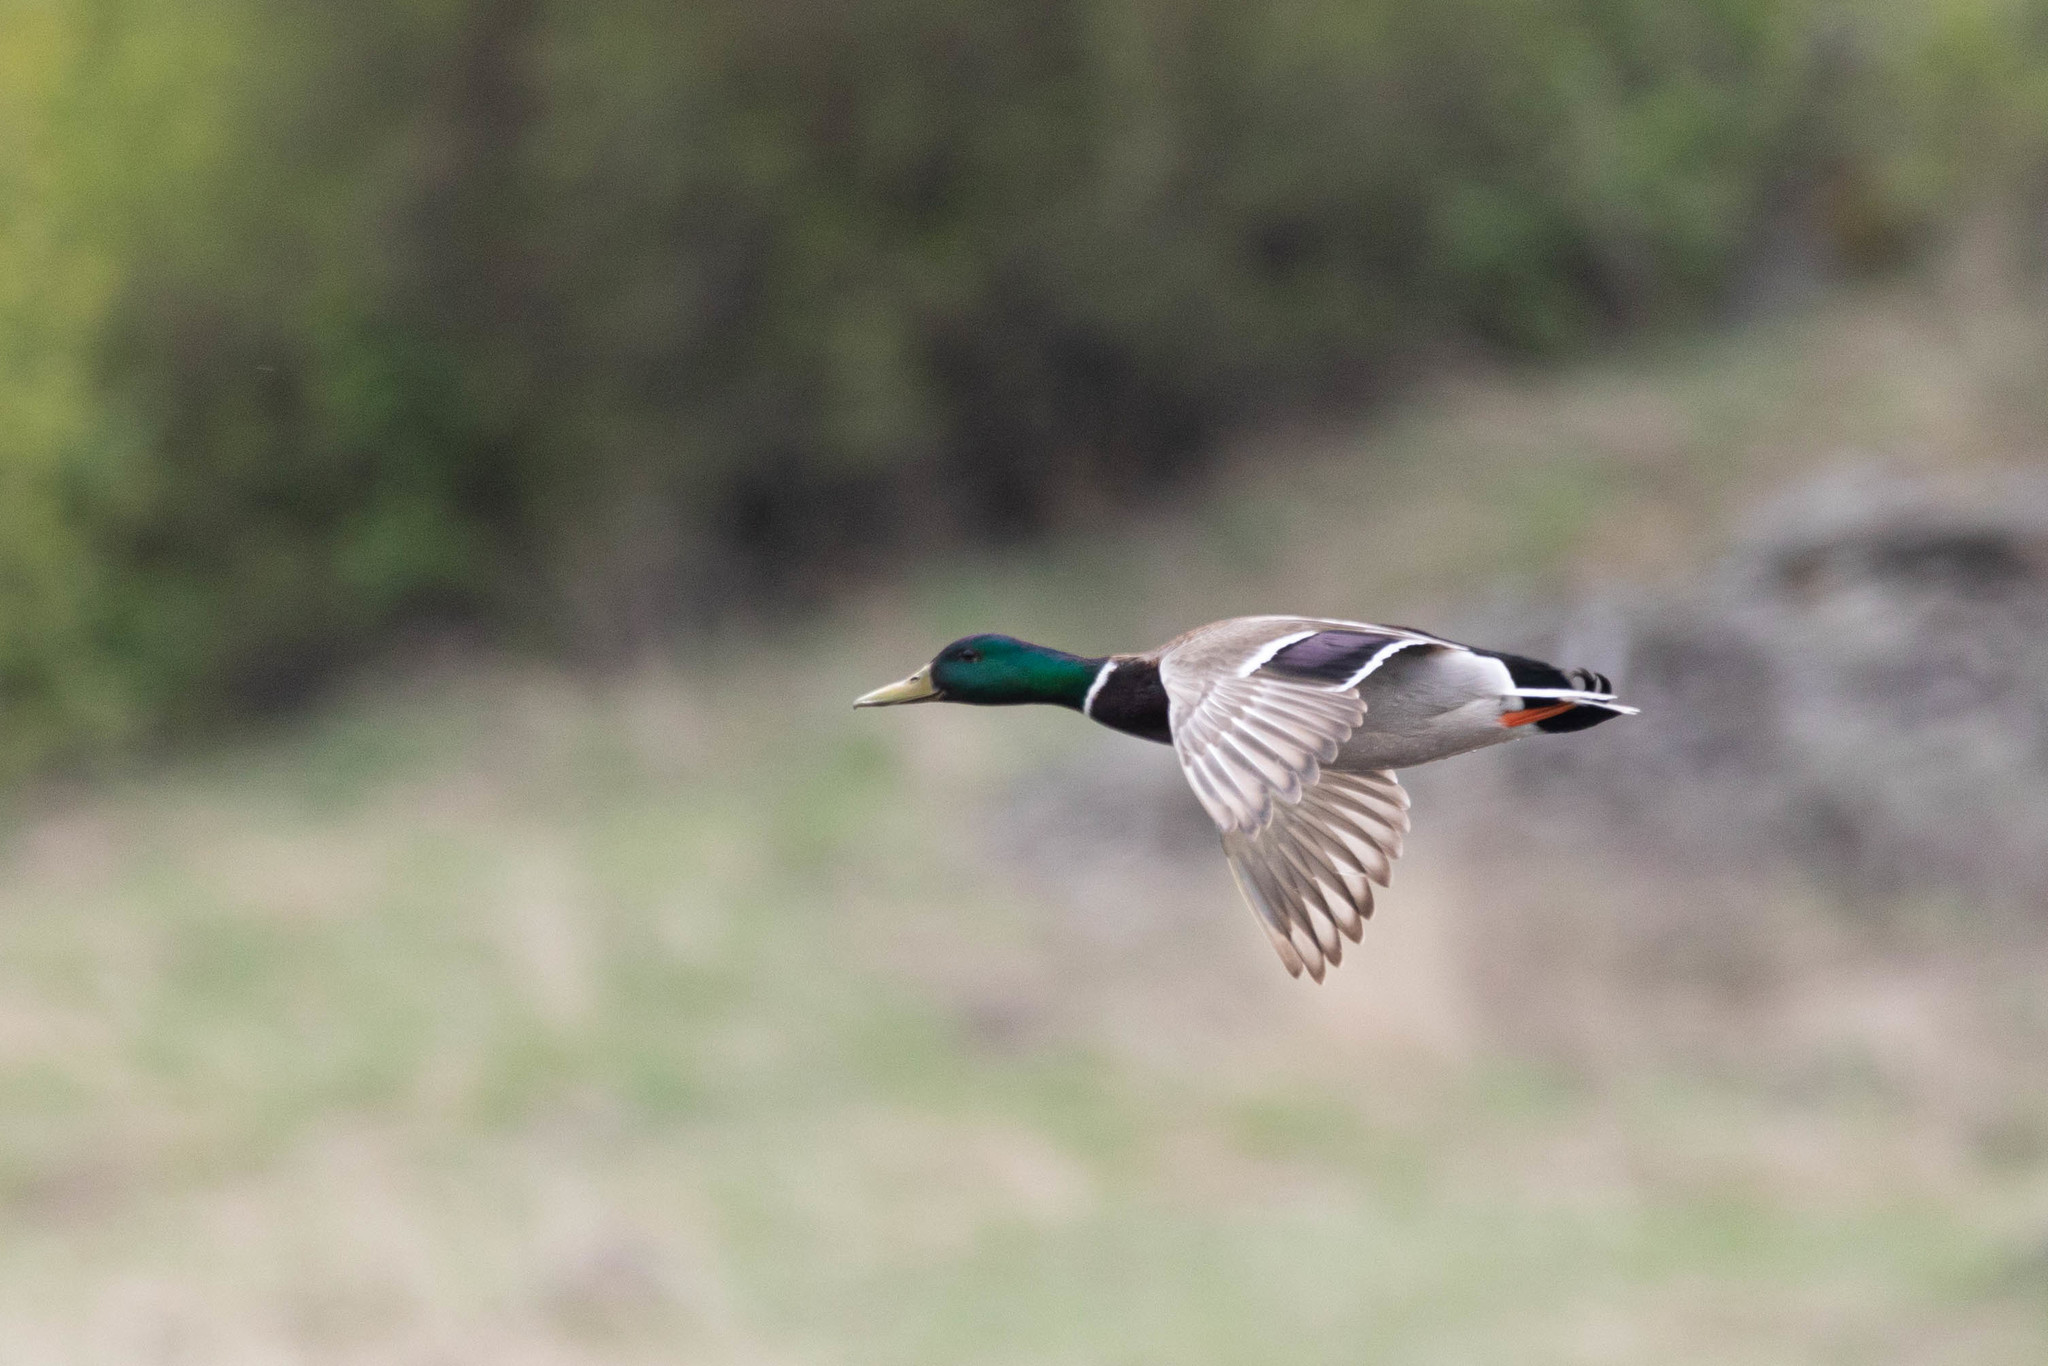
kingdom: Animalia
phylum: Chordata
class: Aves
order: Anseriformes
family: Anatidae
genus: Anas
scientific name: Anas platyrhynchos
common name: Mallard
